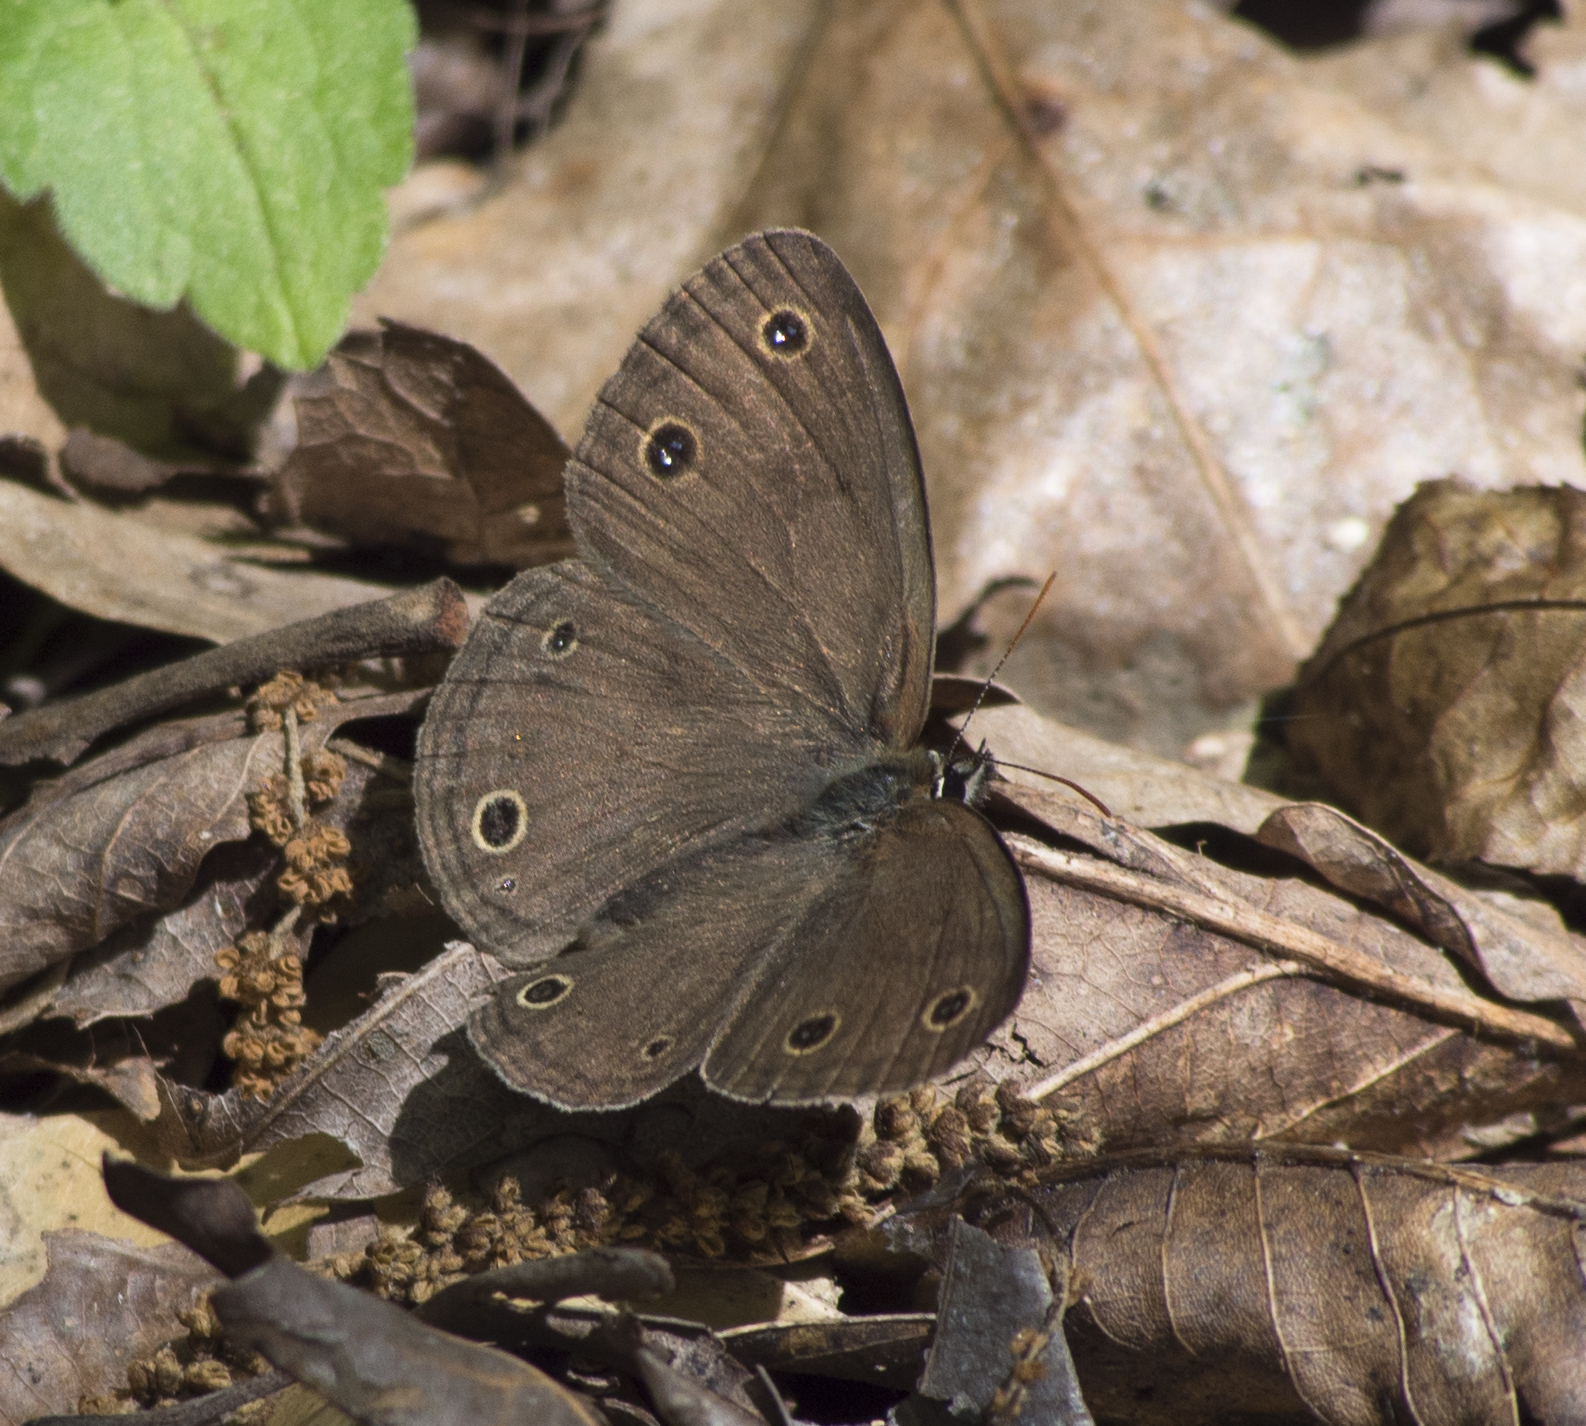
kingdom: Animalia
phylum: Arthropoda
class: Insecta
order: Lepidoptera
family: Nymphalidae
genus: Euptychia
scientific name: Euptychia cymela
